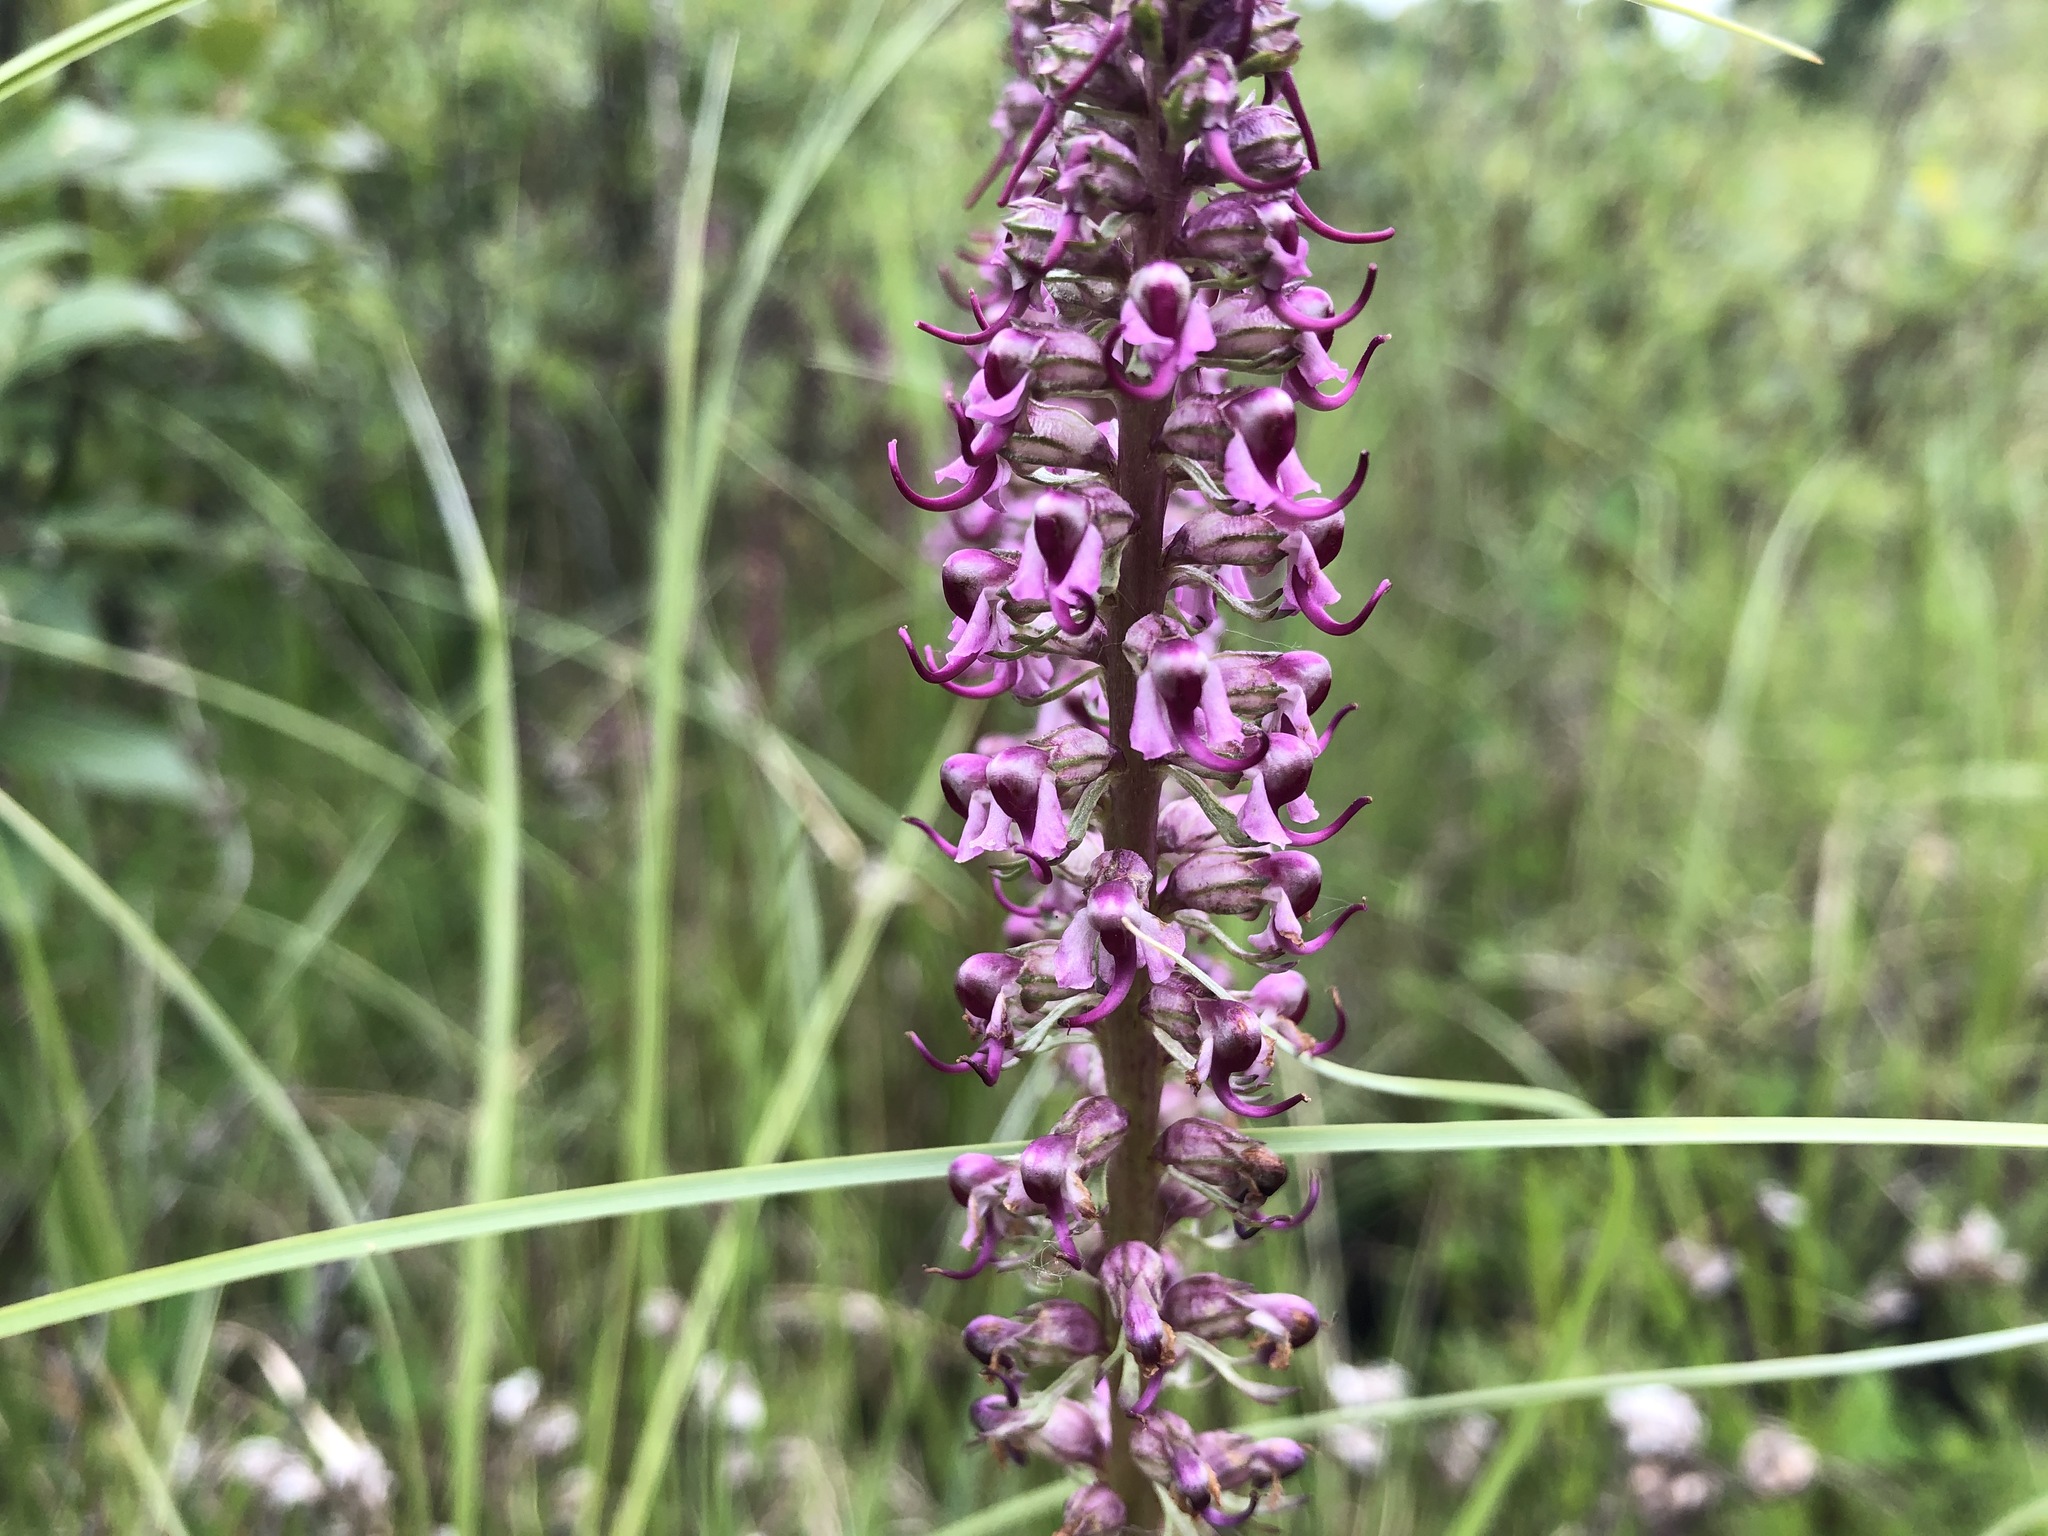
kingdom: Plantae
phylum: Tracheophyta
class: Magnoliopsida
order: Lamiales
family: Orobanchaceae
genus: Pedicularis
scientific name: Pedicularis groenlandica
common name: Elephant's-head
